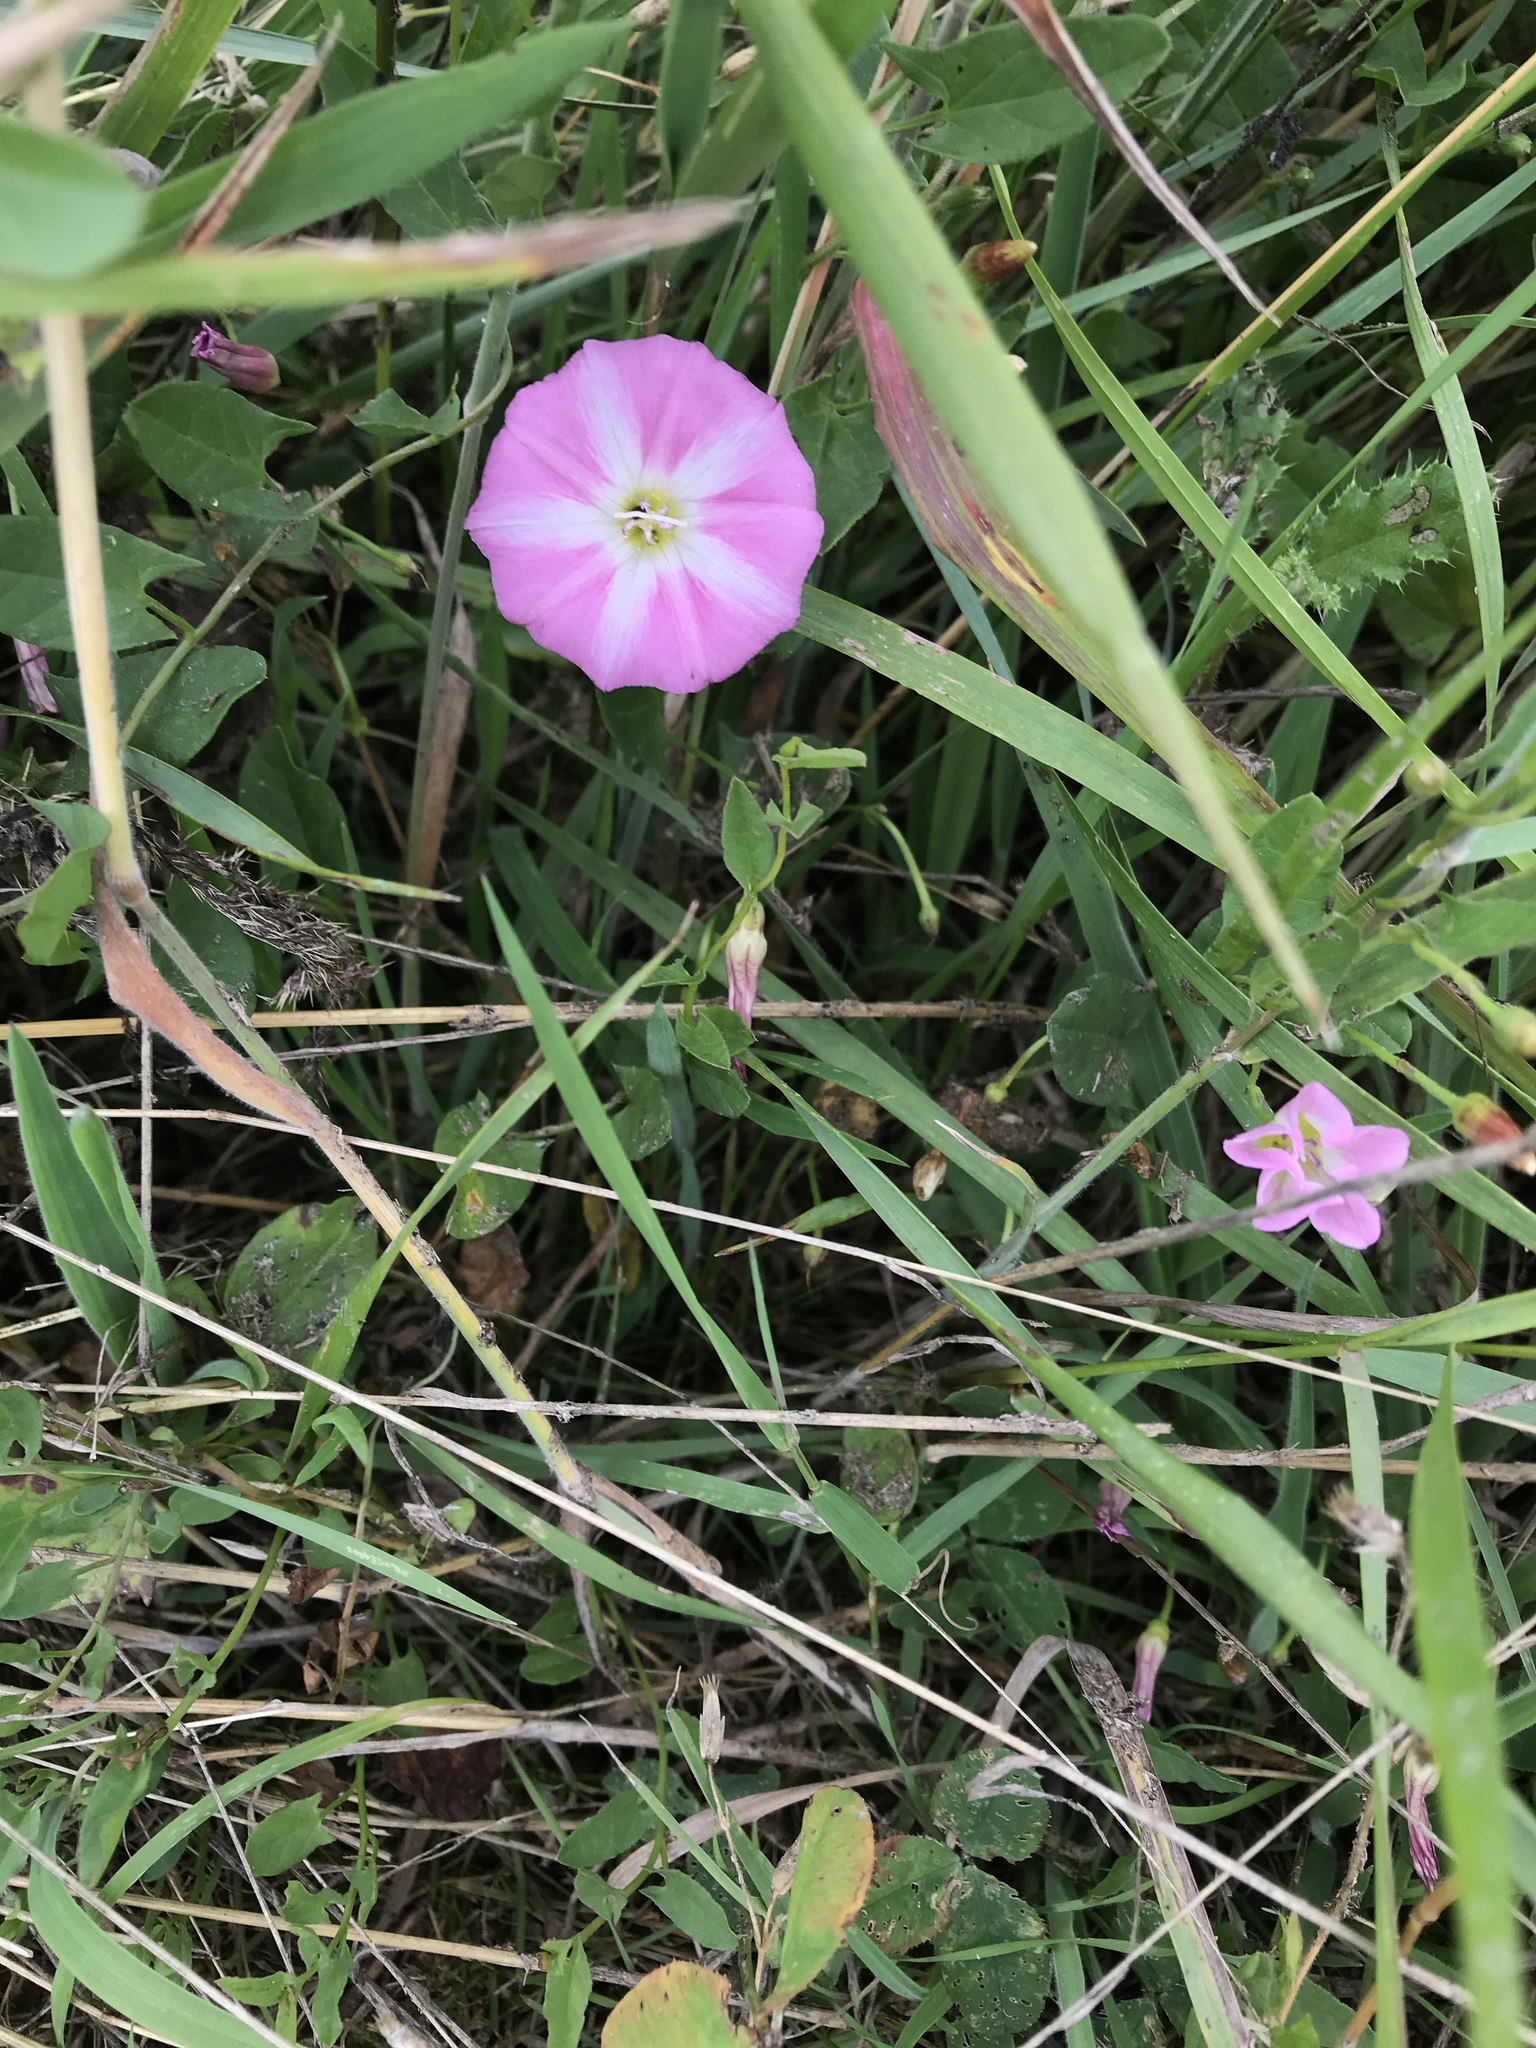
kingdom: Plantae
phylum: Tracheophyta
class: Magnoliopsida
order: Solanales
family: Convolvulaceae
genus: Convolvulus
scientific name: Convolvulus arvensis
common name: Field bindweed
